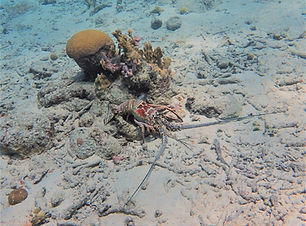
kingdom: Animalia
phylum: Arthropoda
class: Malacostraca
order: Decapoda
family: Palinuridae
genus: Panulirus
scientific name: Panulirus argus
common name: Caribbean spiny lobster
